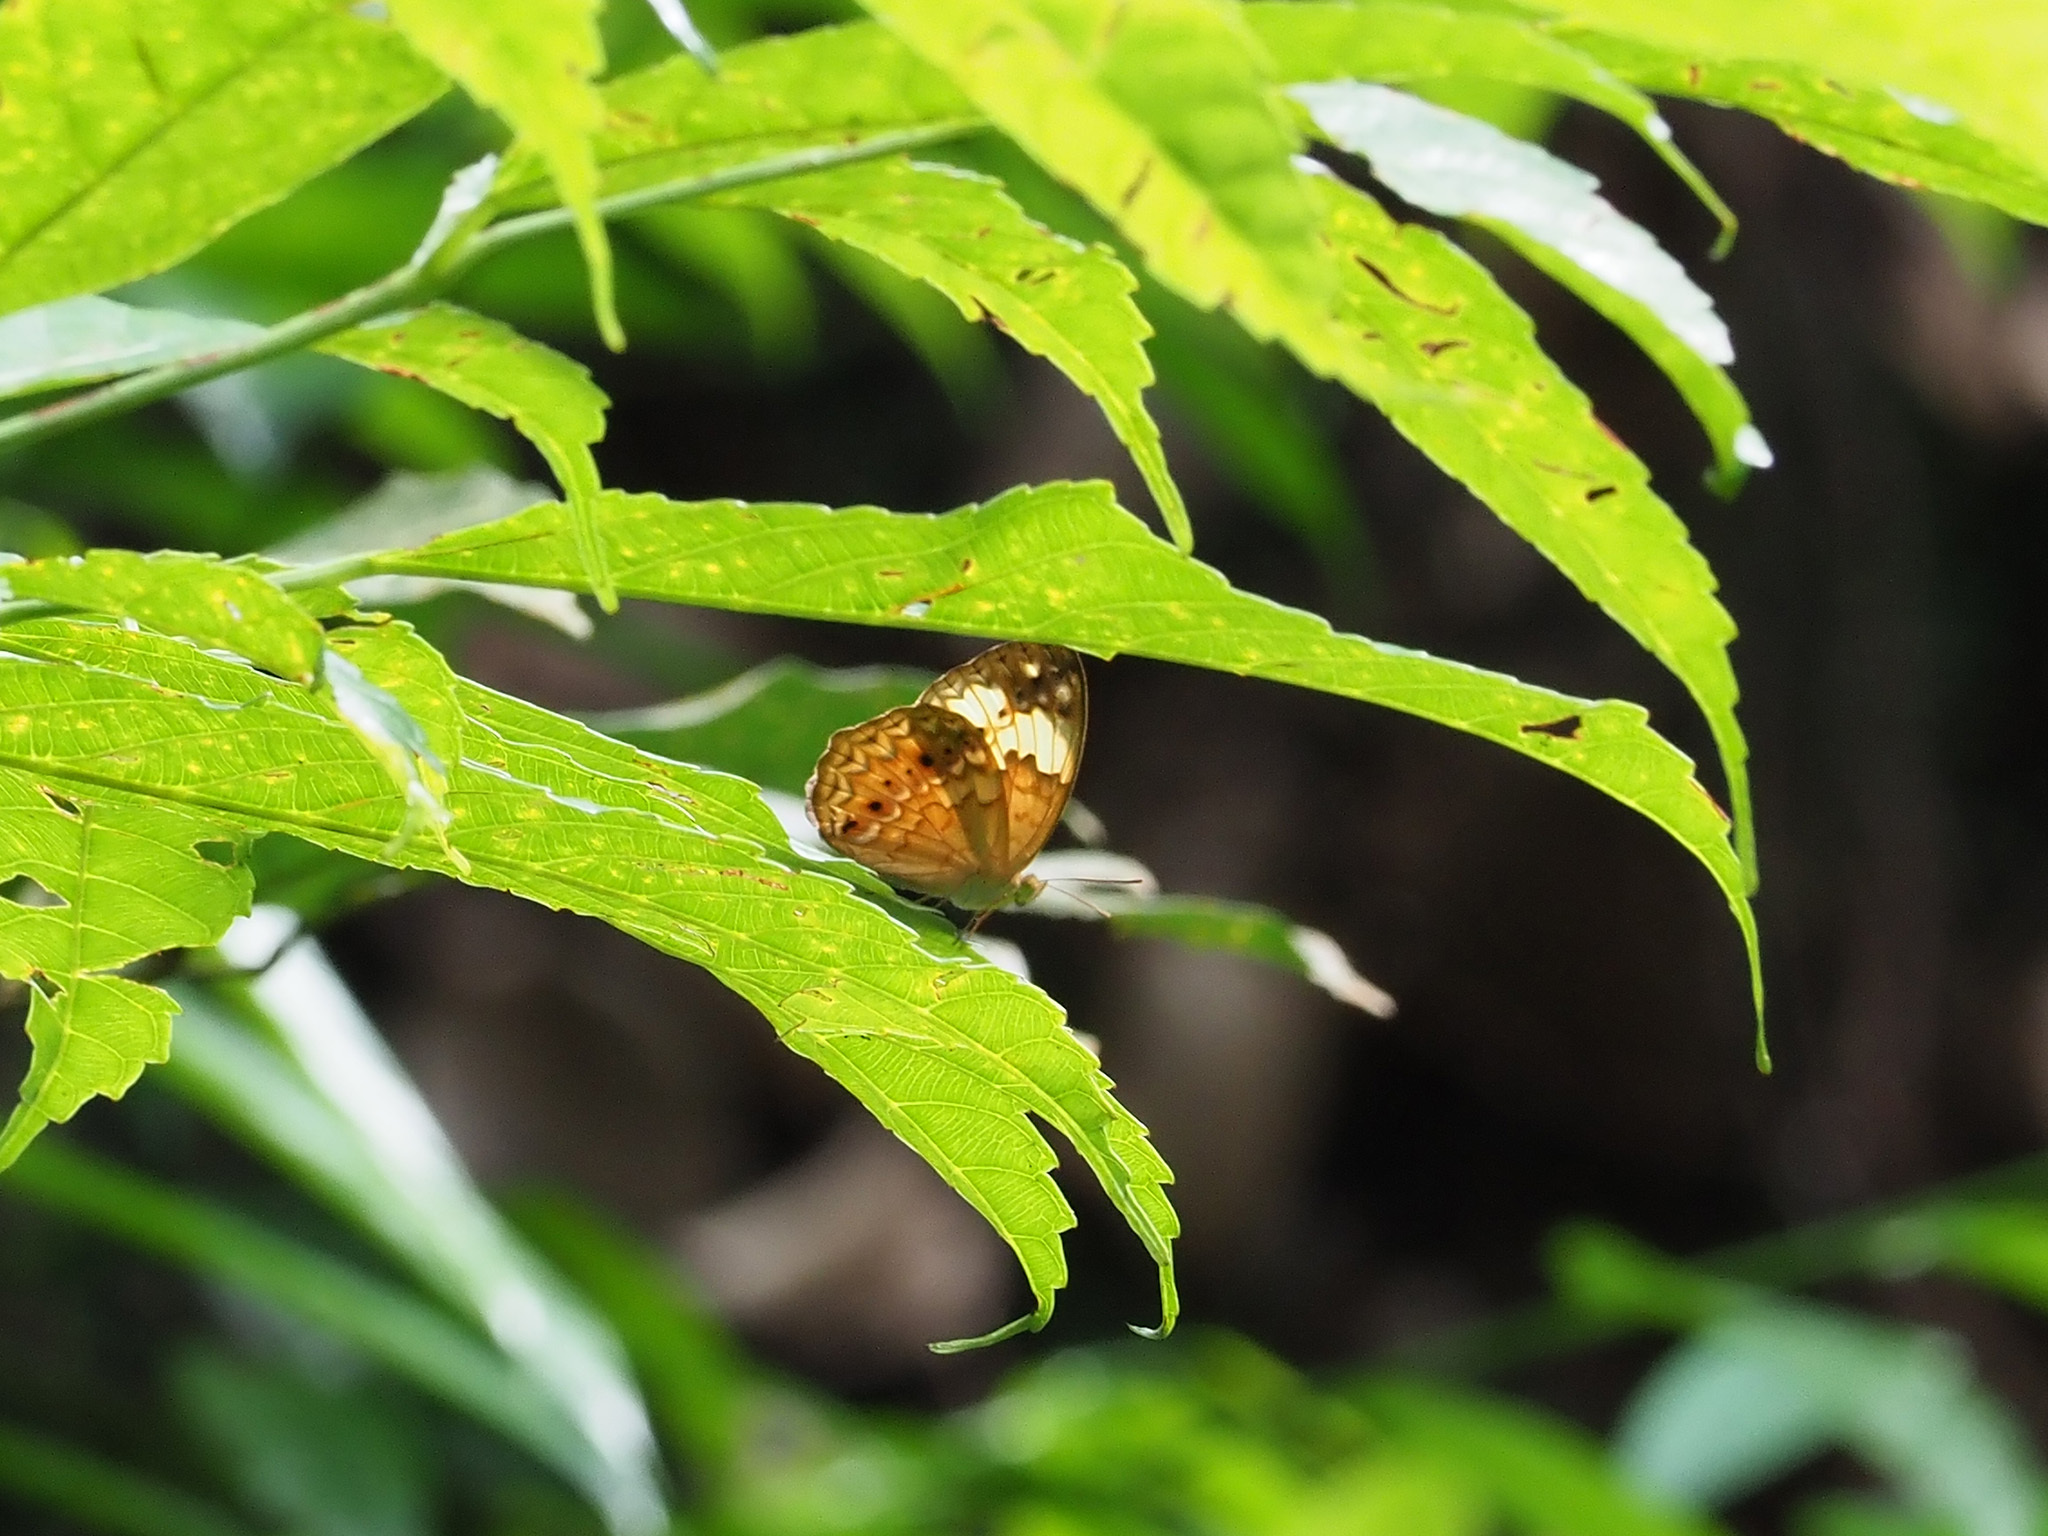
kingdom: Animalia
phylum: Arthropoda
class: Insecta
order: Lepidoptera
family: Nymphalidae
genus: Cupha
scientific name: Cupha erymanthis
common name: Rustic
